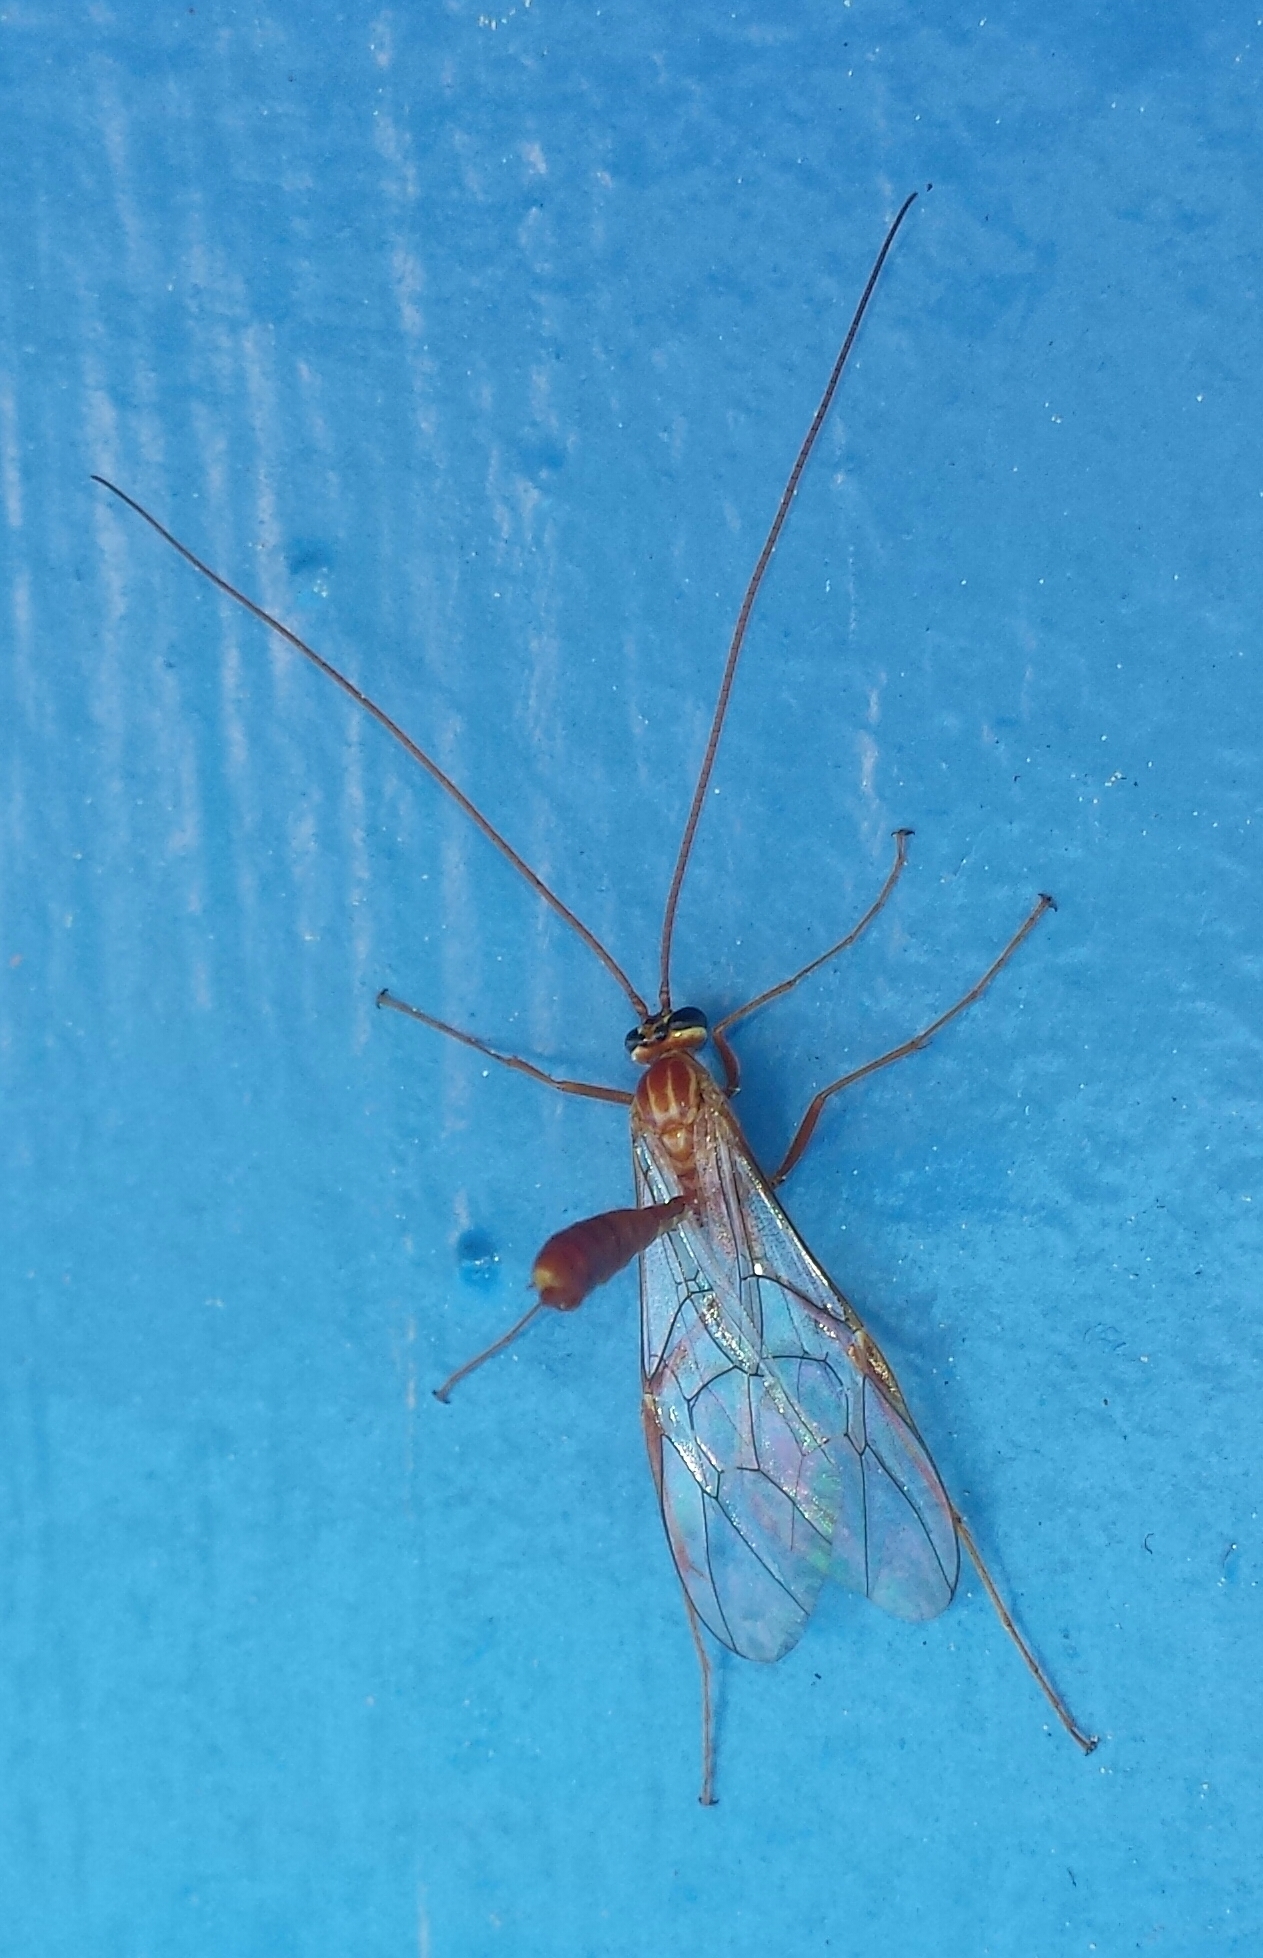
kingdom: Animalia
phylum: Arthropoda
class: Insecta
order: Hymenoptera
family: Ichneumonidae
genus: Ophion
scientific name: Ophion
